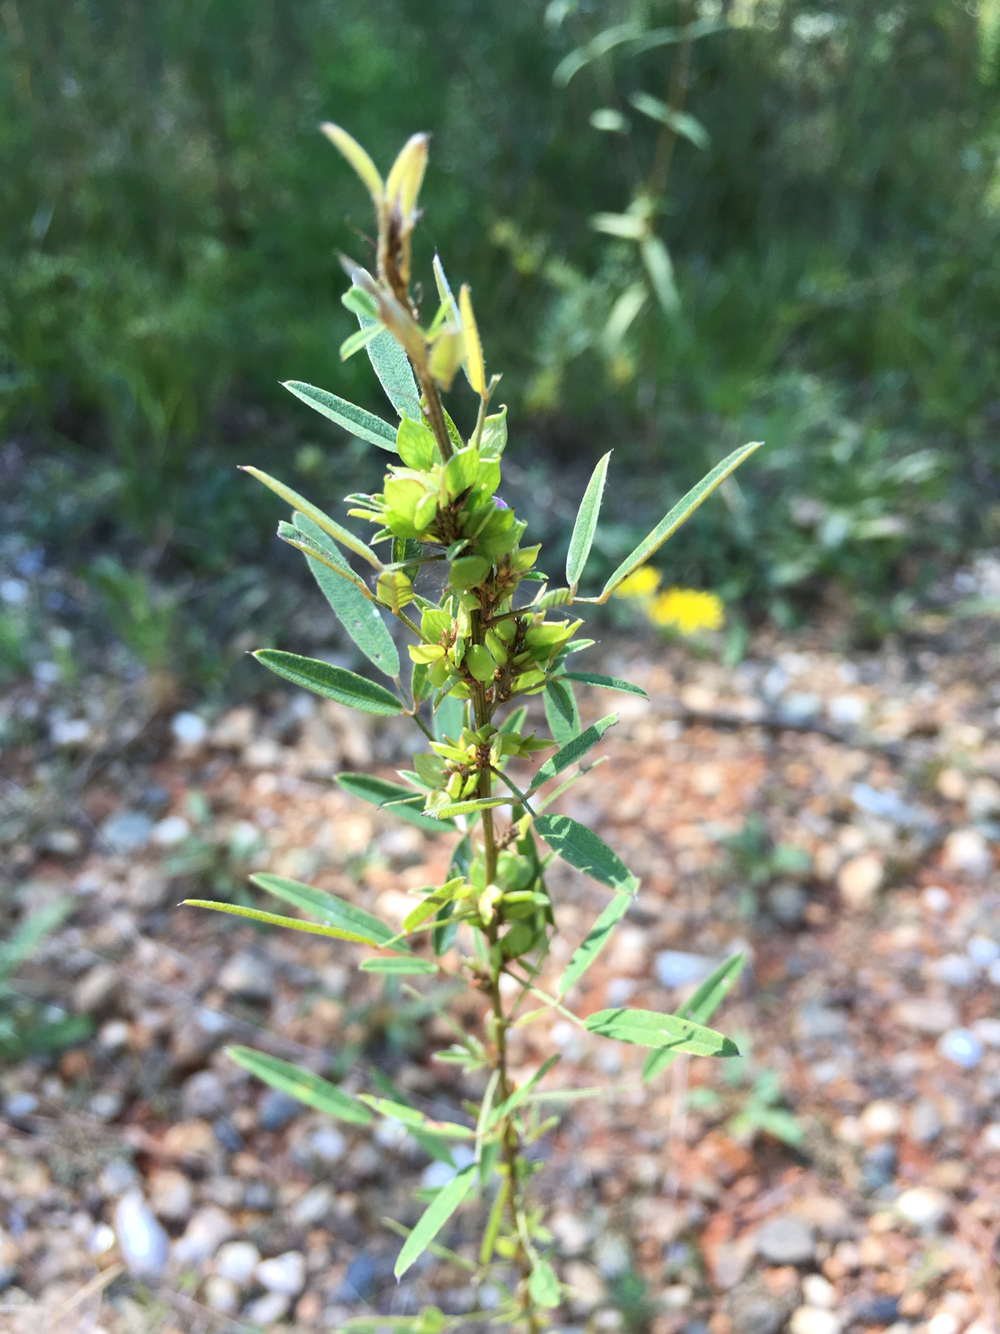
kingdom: Plantae
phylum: Tracheophyta
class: Magnoliopsida
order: Fabales
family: Fabaceae
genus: Lespedeza
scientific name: Lespedeza virginica
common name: Slender bush-clover
